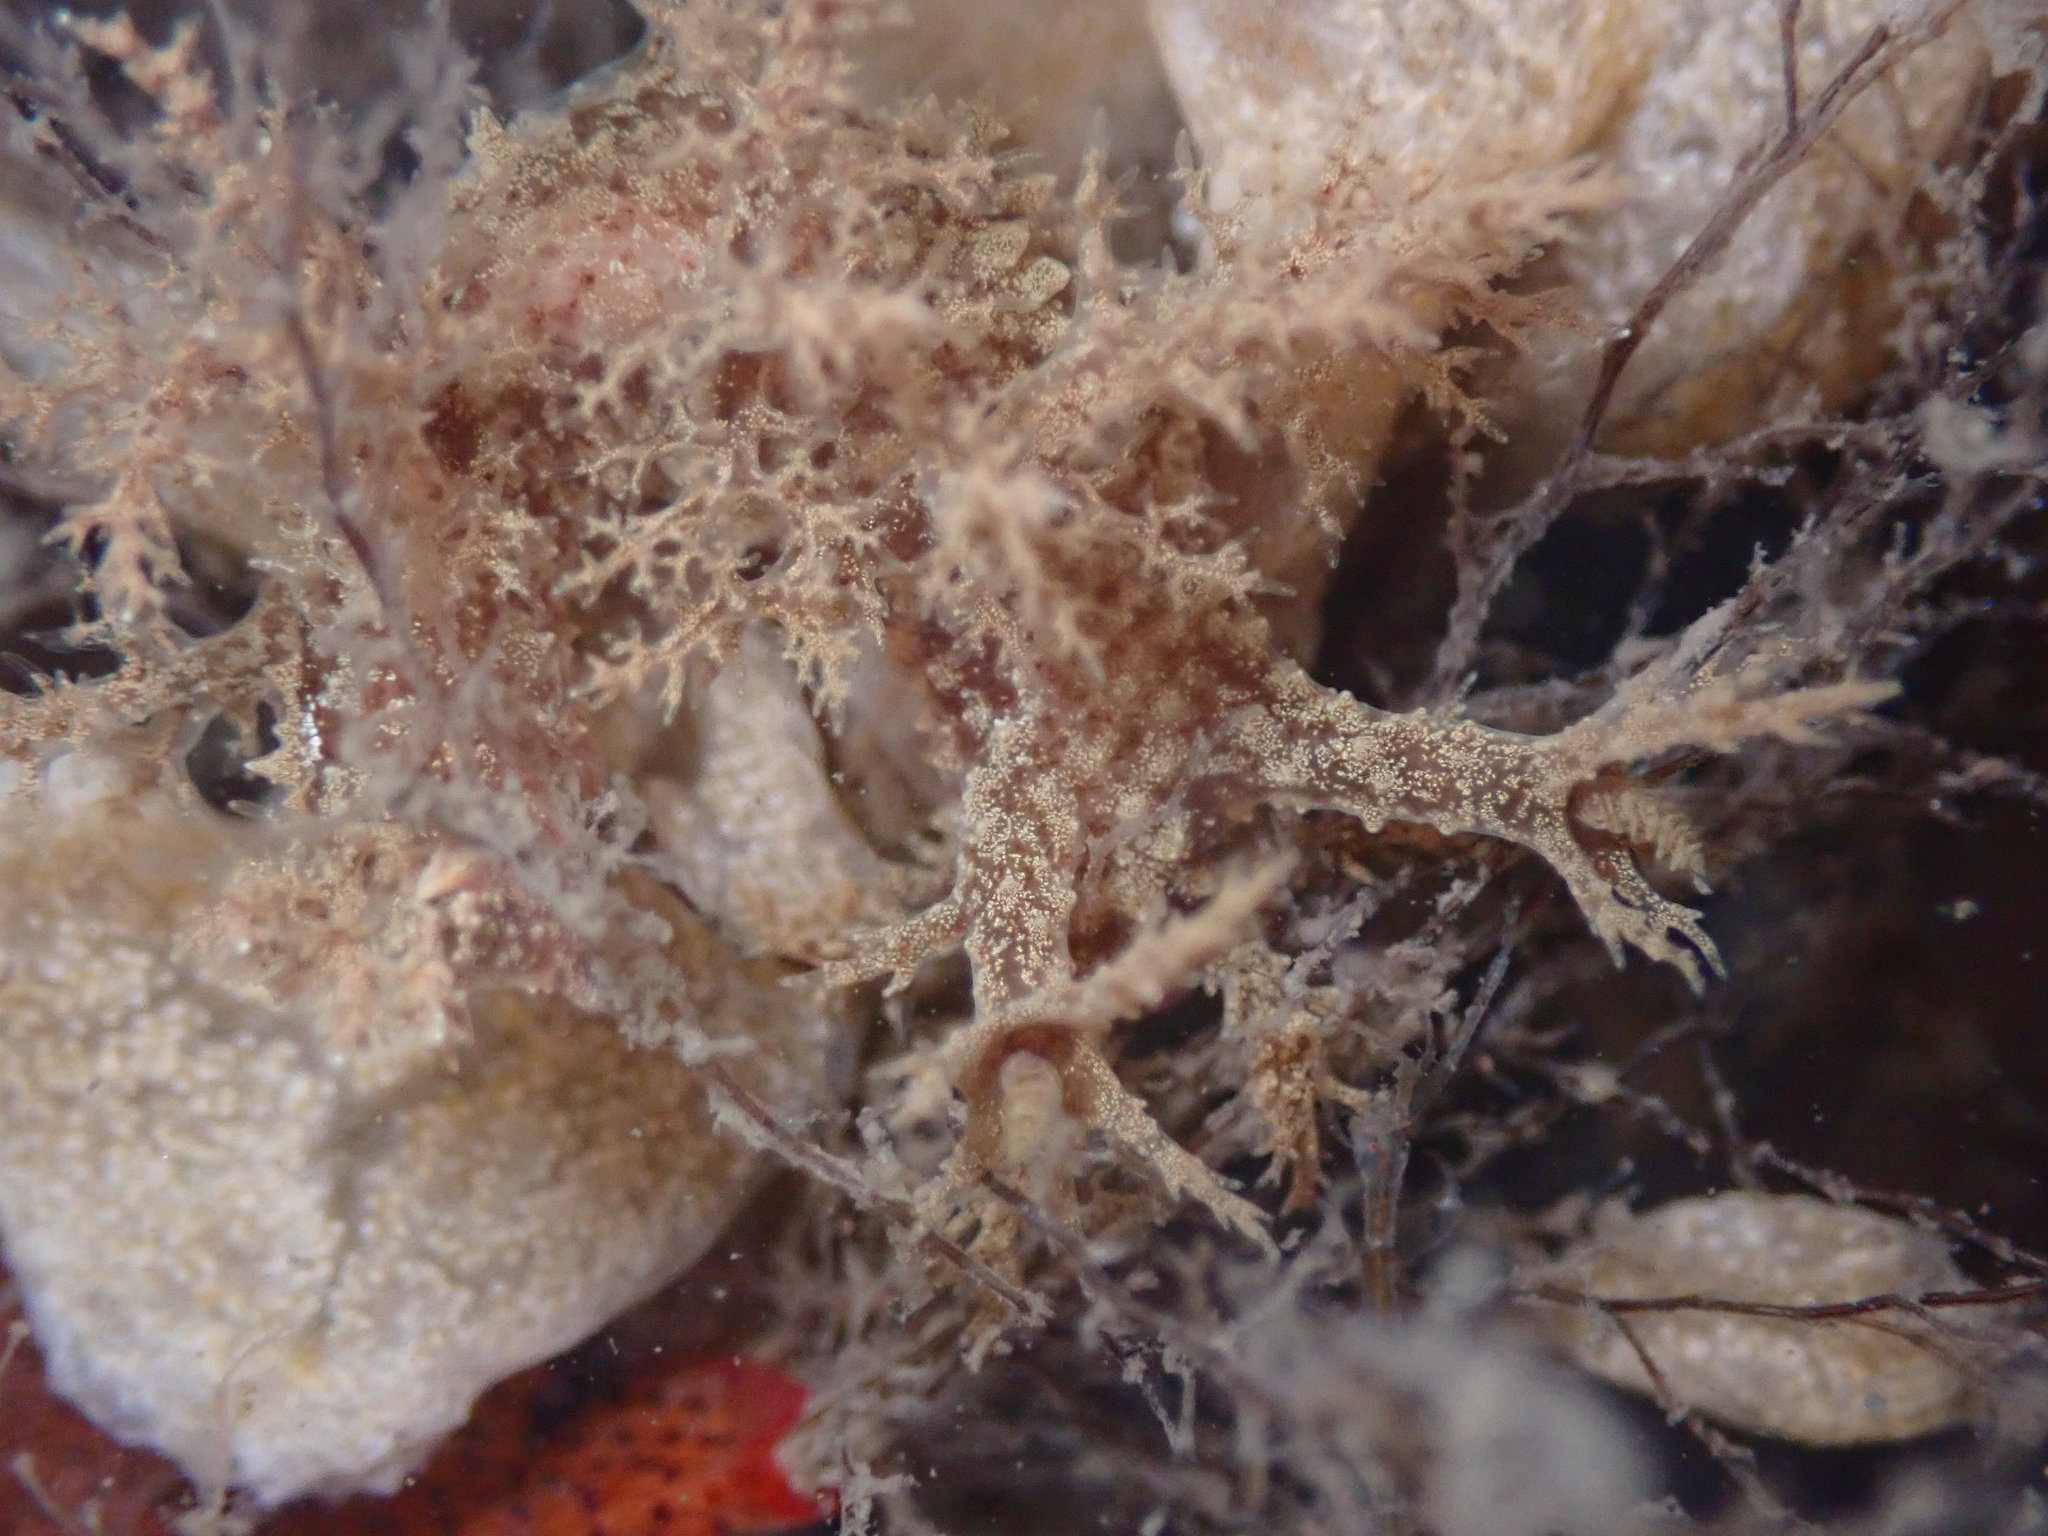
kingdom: Animalia
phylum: Mollusca
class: Gastropoda
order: Nudibranchia
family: Dendronotidae
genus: Dendronotus
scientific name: Dendronotus venustus
